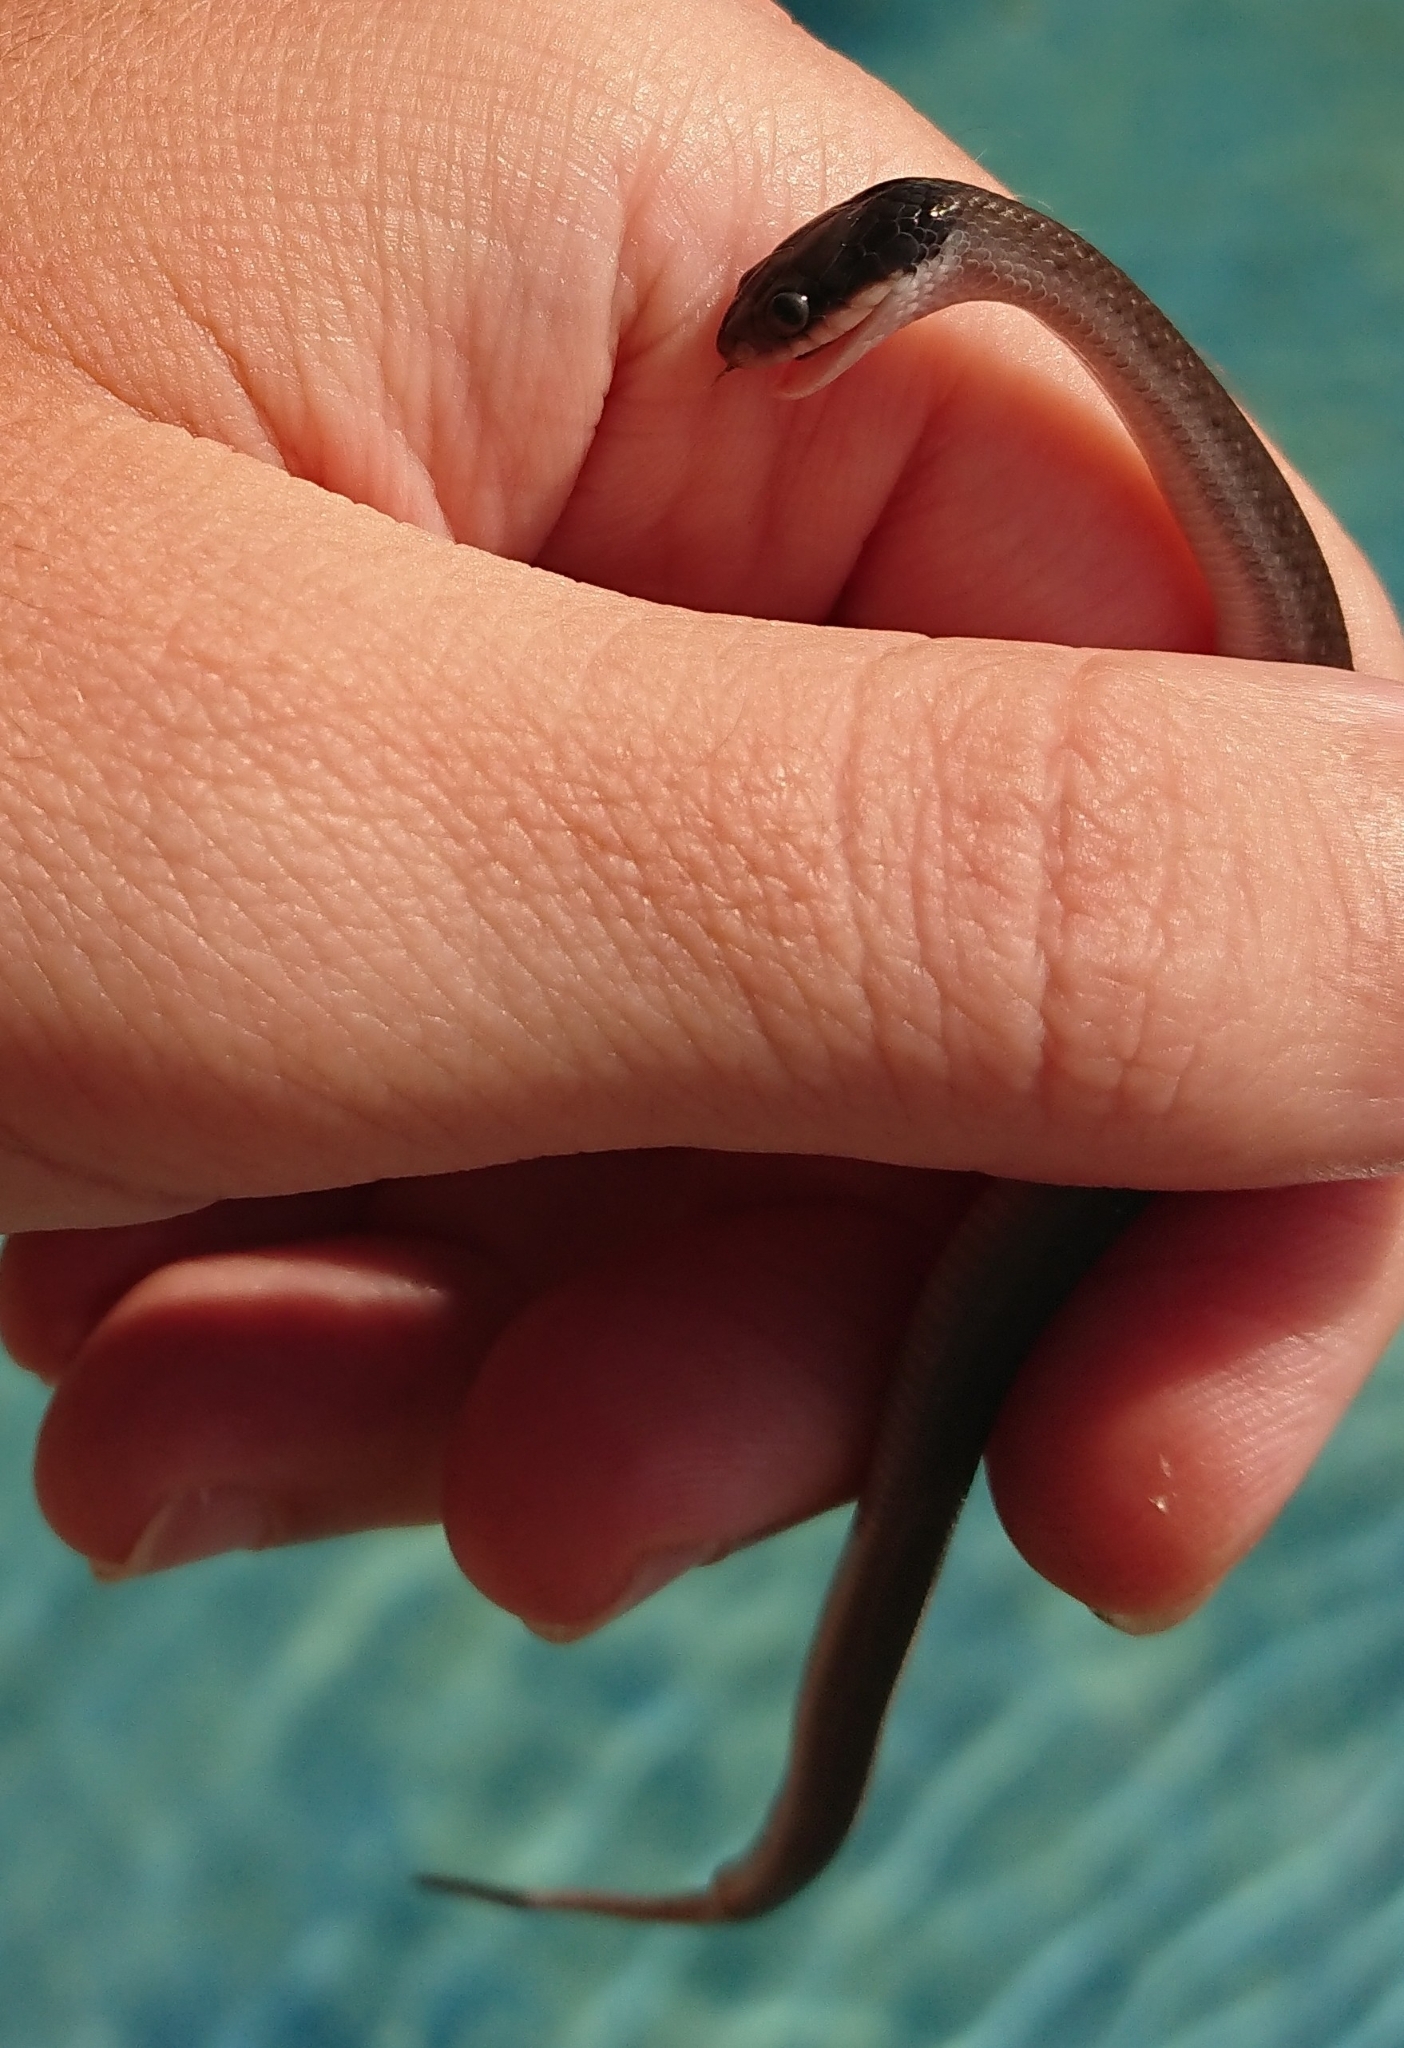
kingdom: Animalia
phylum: Chordata
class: Squamata
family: Colubridae
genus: Crotaphopeltis
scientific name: Crotaphopeltis hotamboeia
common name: Red-lipped snake
